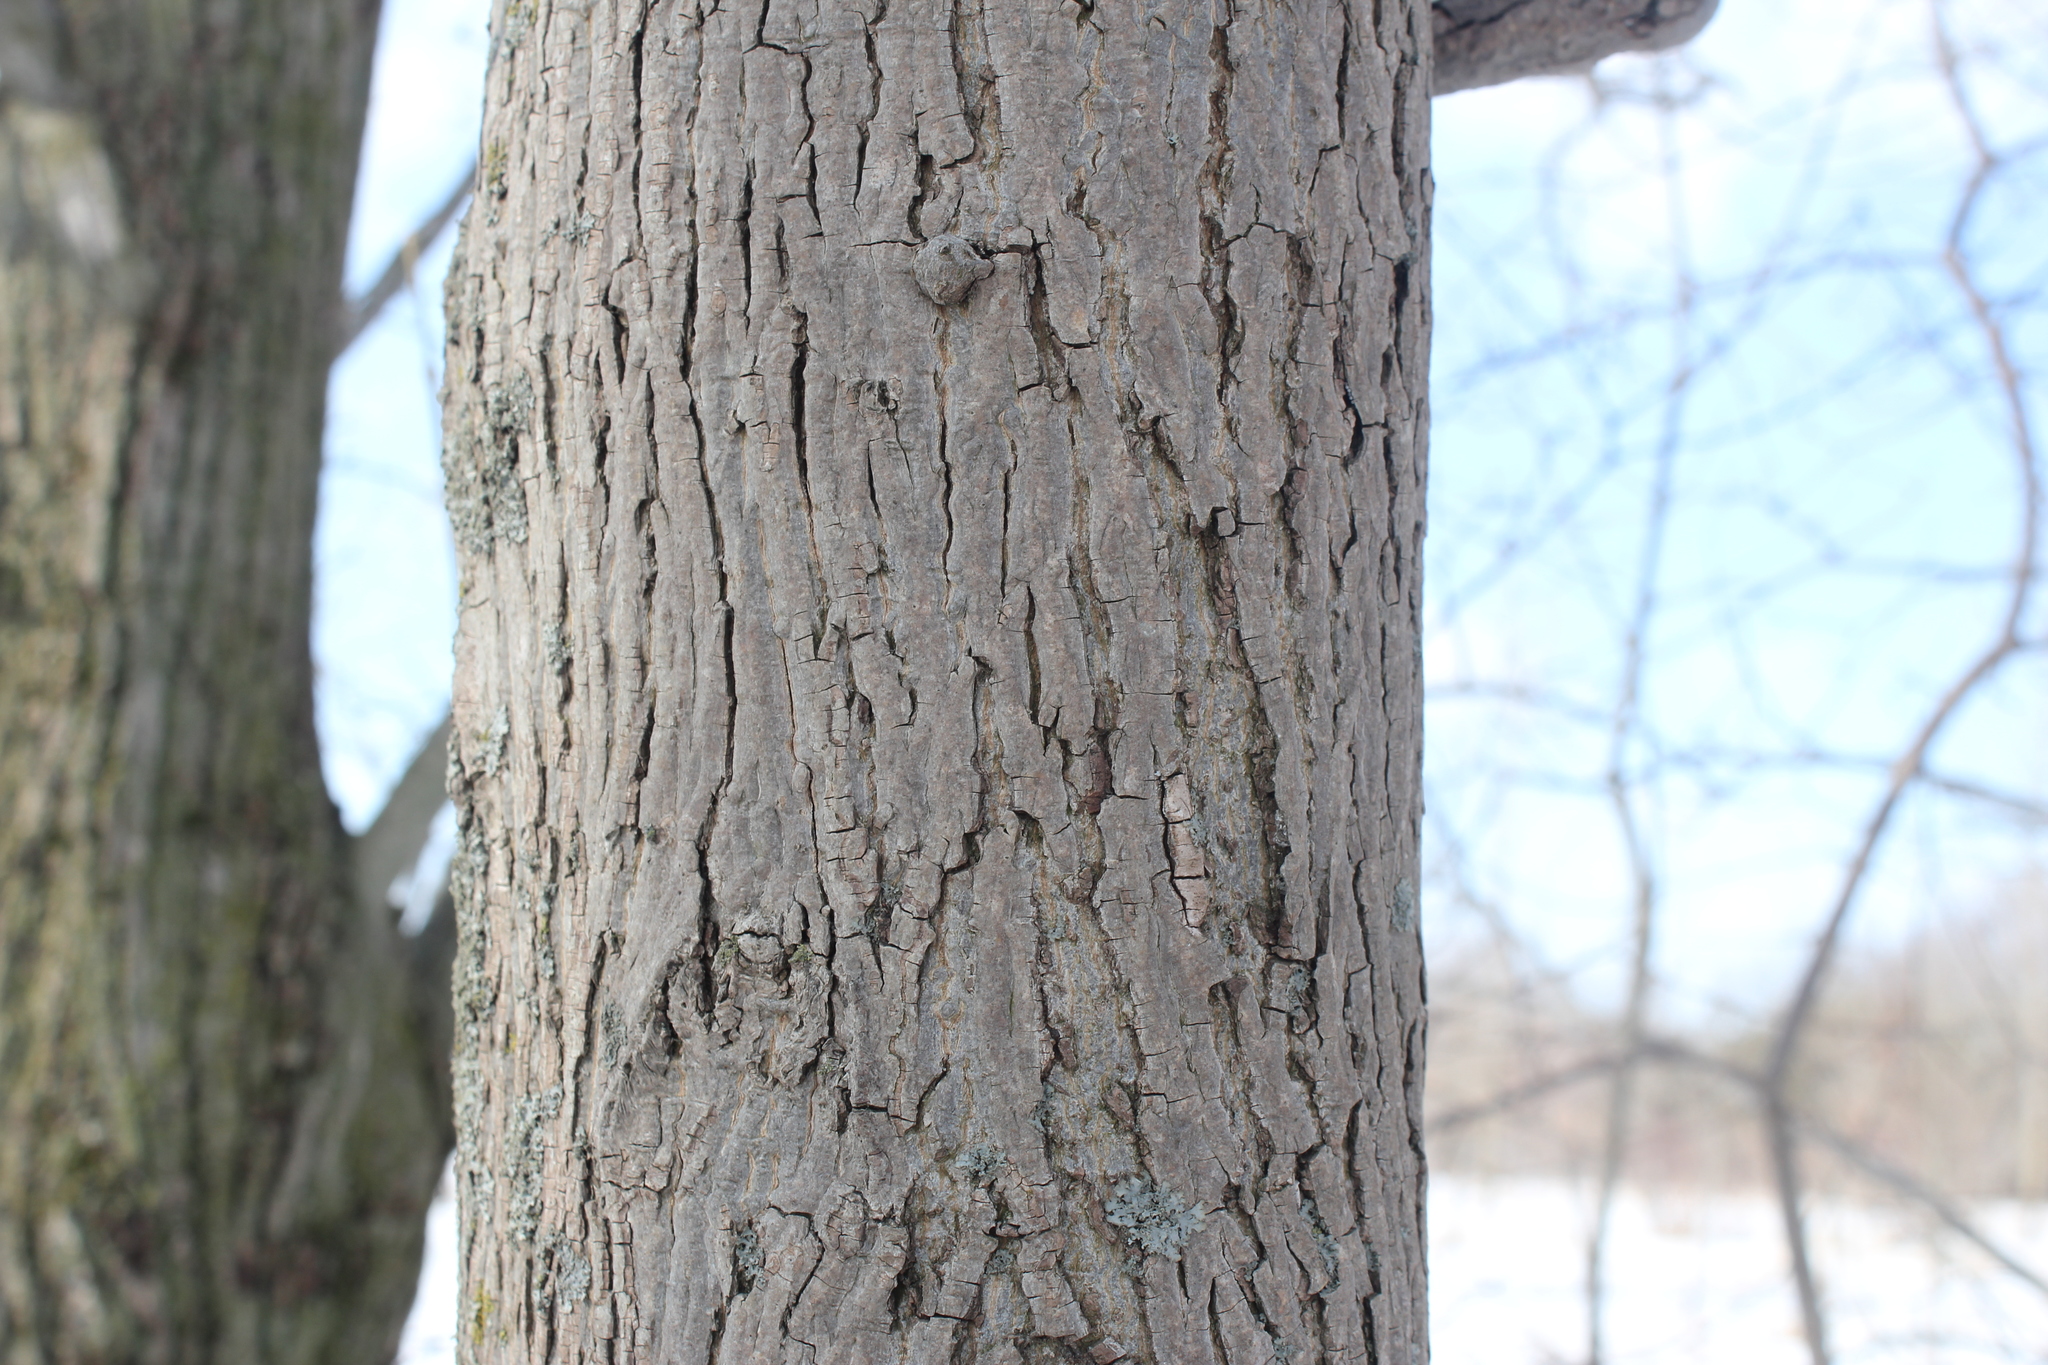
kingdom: Plantae
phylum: Tracheophyta
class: Magnoliopsida
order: Fagales
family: Juglandaceae
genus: Carya
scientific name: Carya cordiformis
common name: Bitternut hickory
